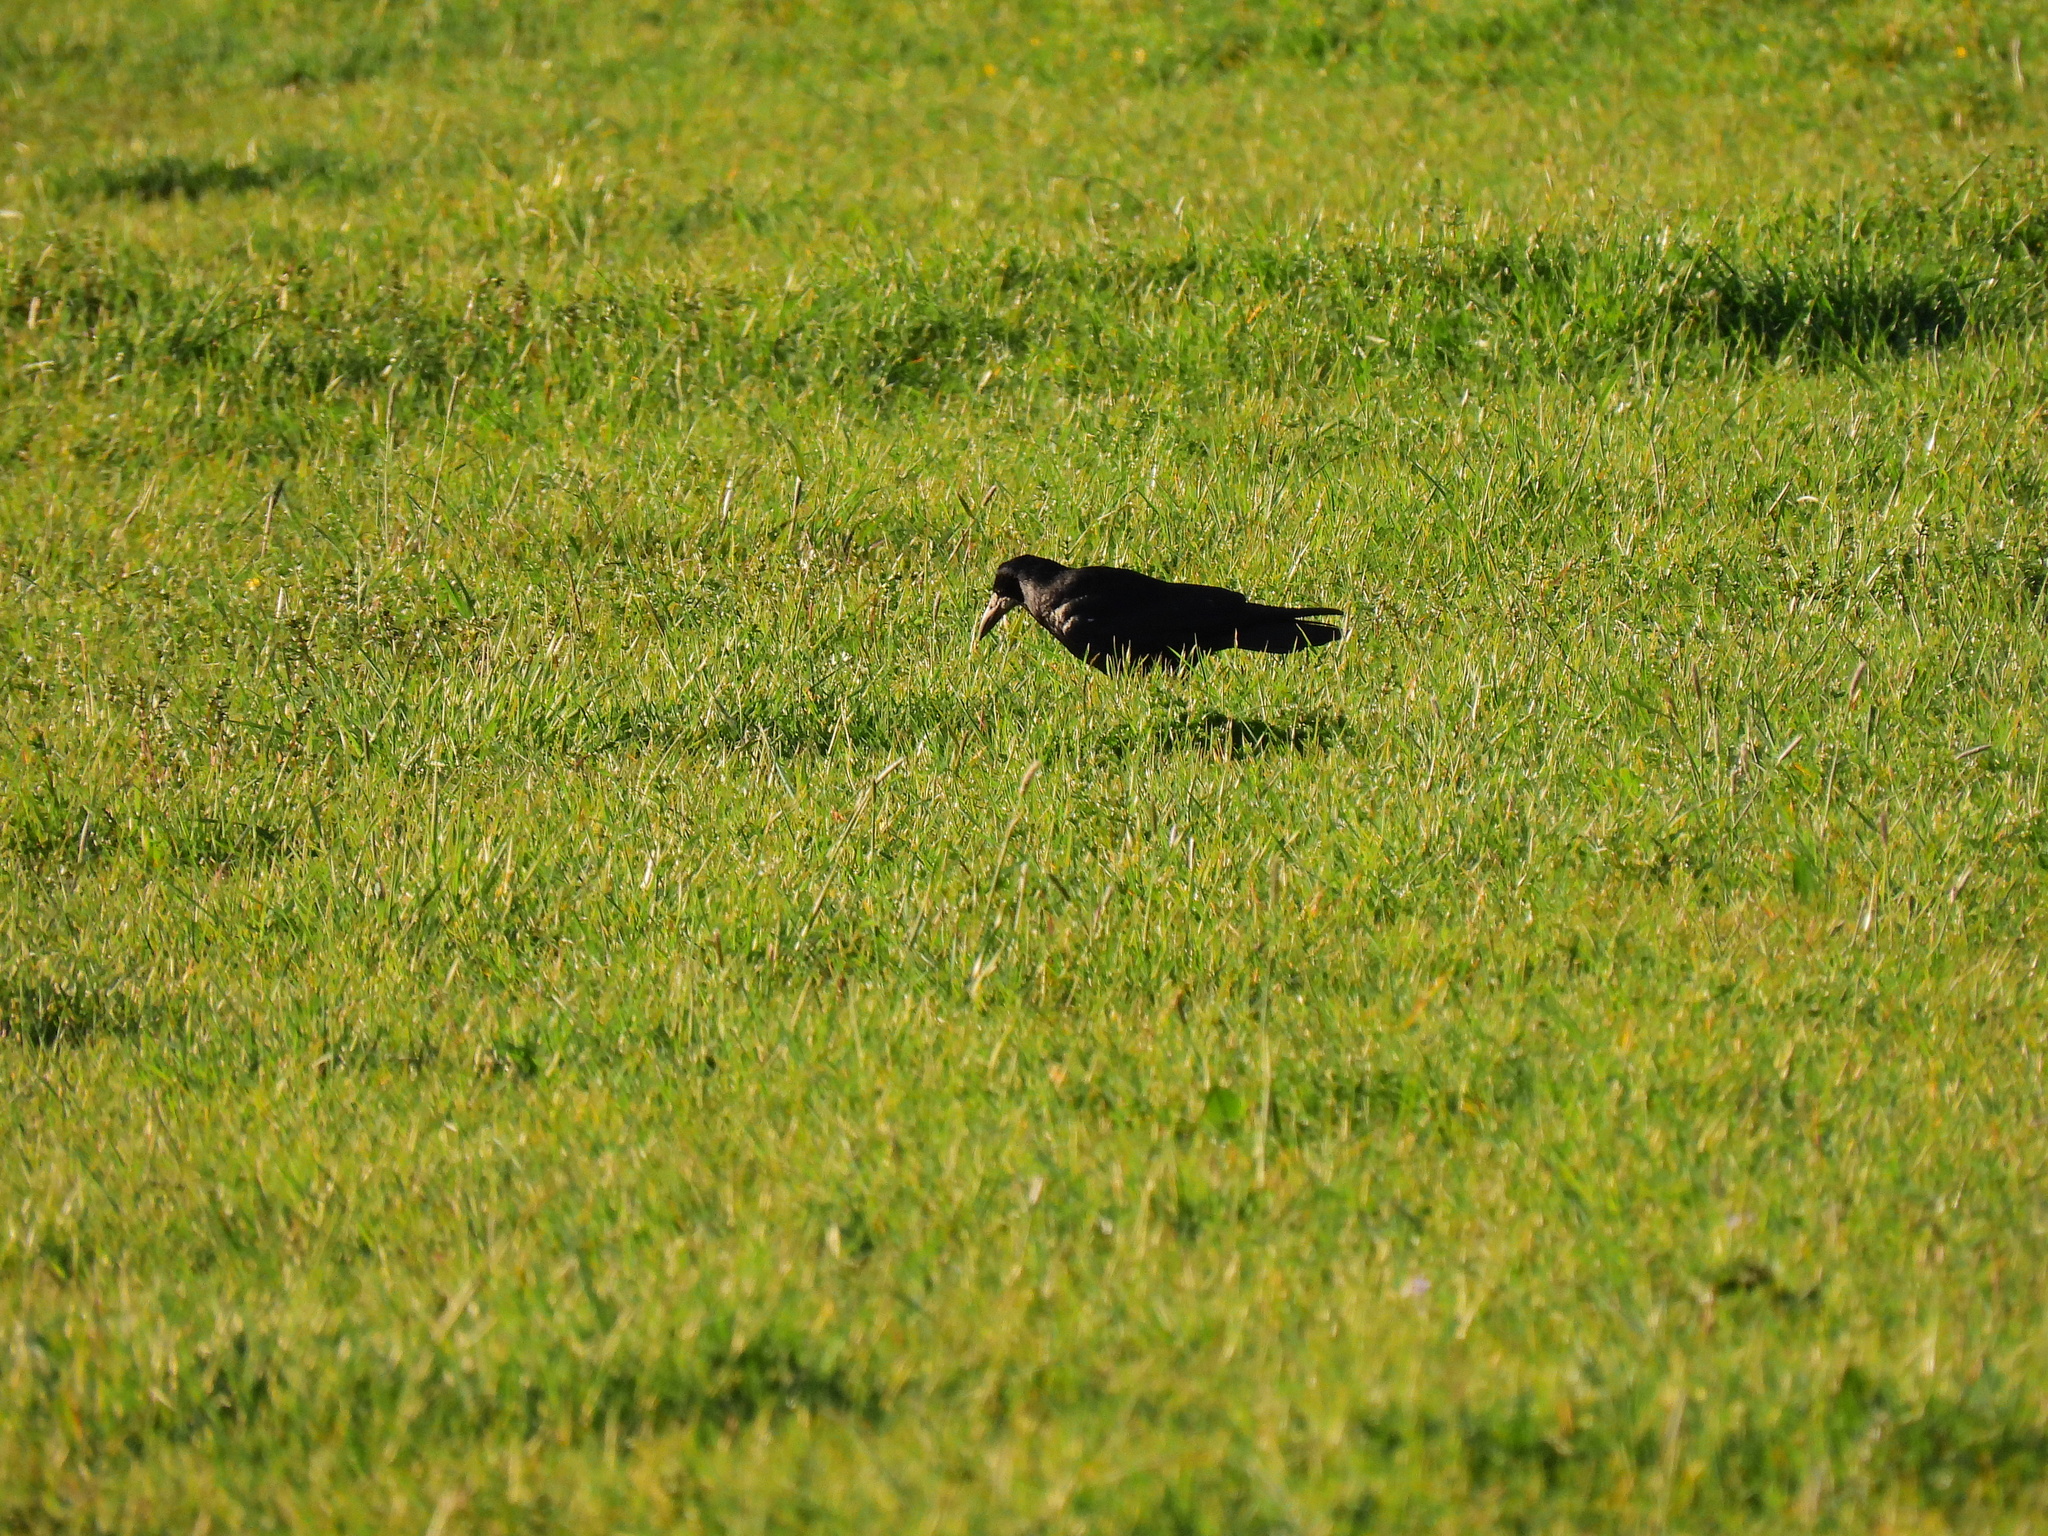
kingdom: Animalia
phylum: Chordata
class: Aves
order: Passeriformes
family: Corvidae
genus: Corvus
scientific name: Corvus frugilegus
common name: Rook
